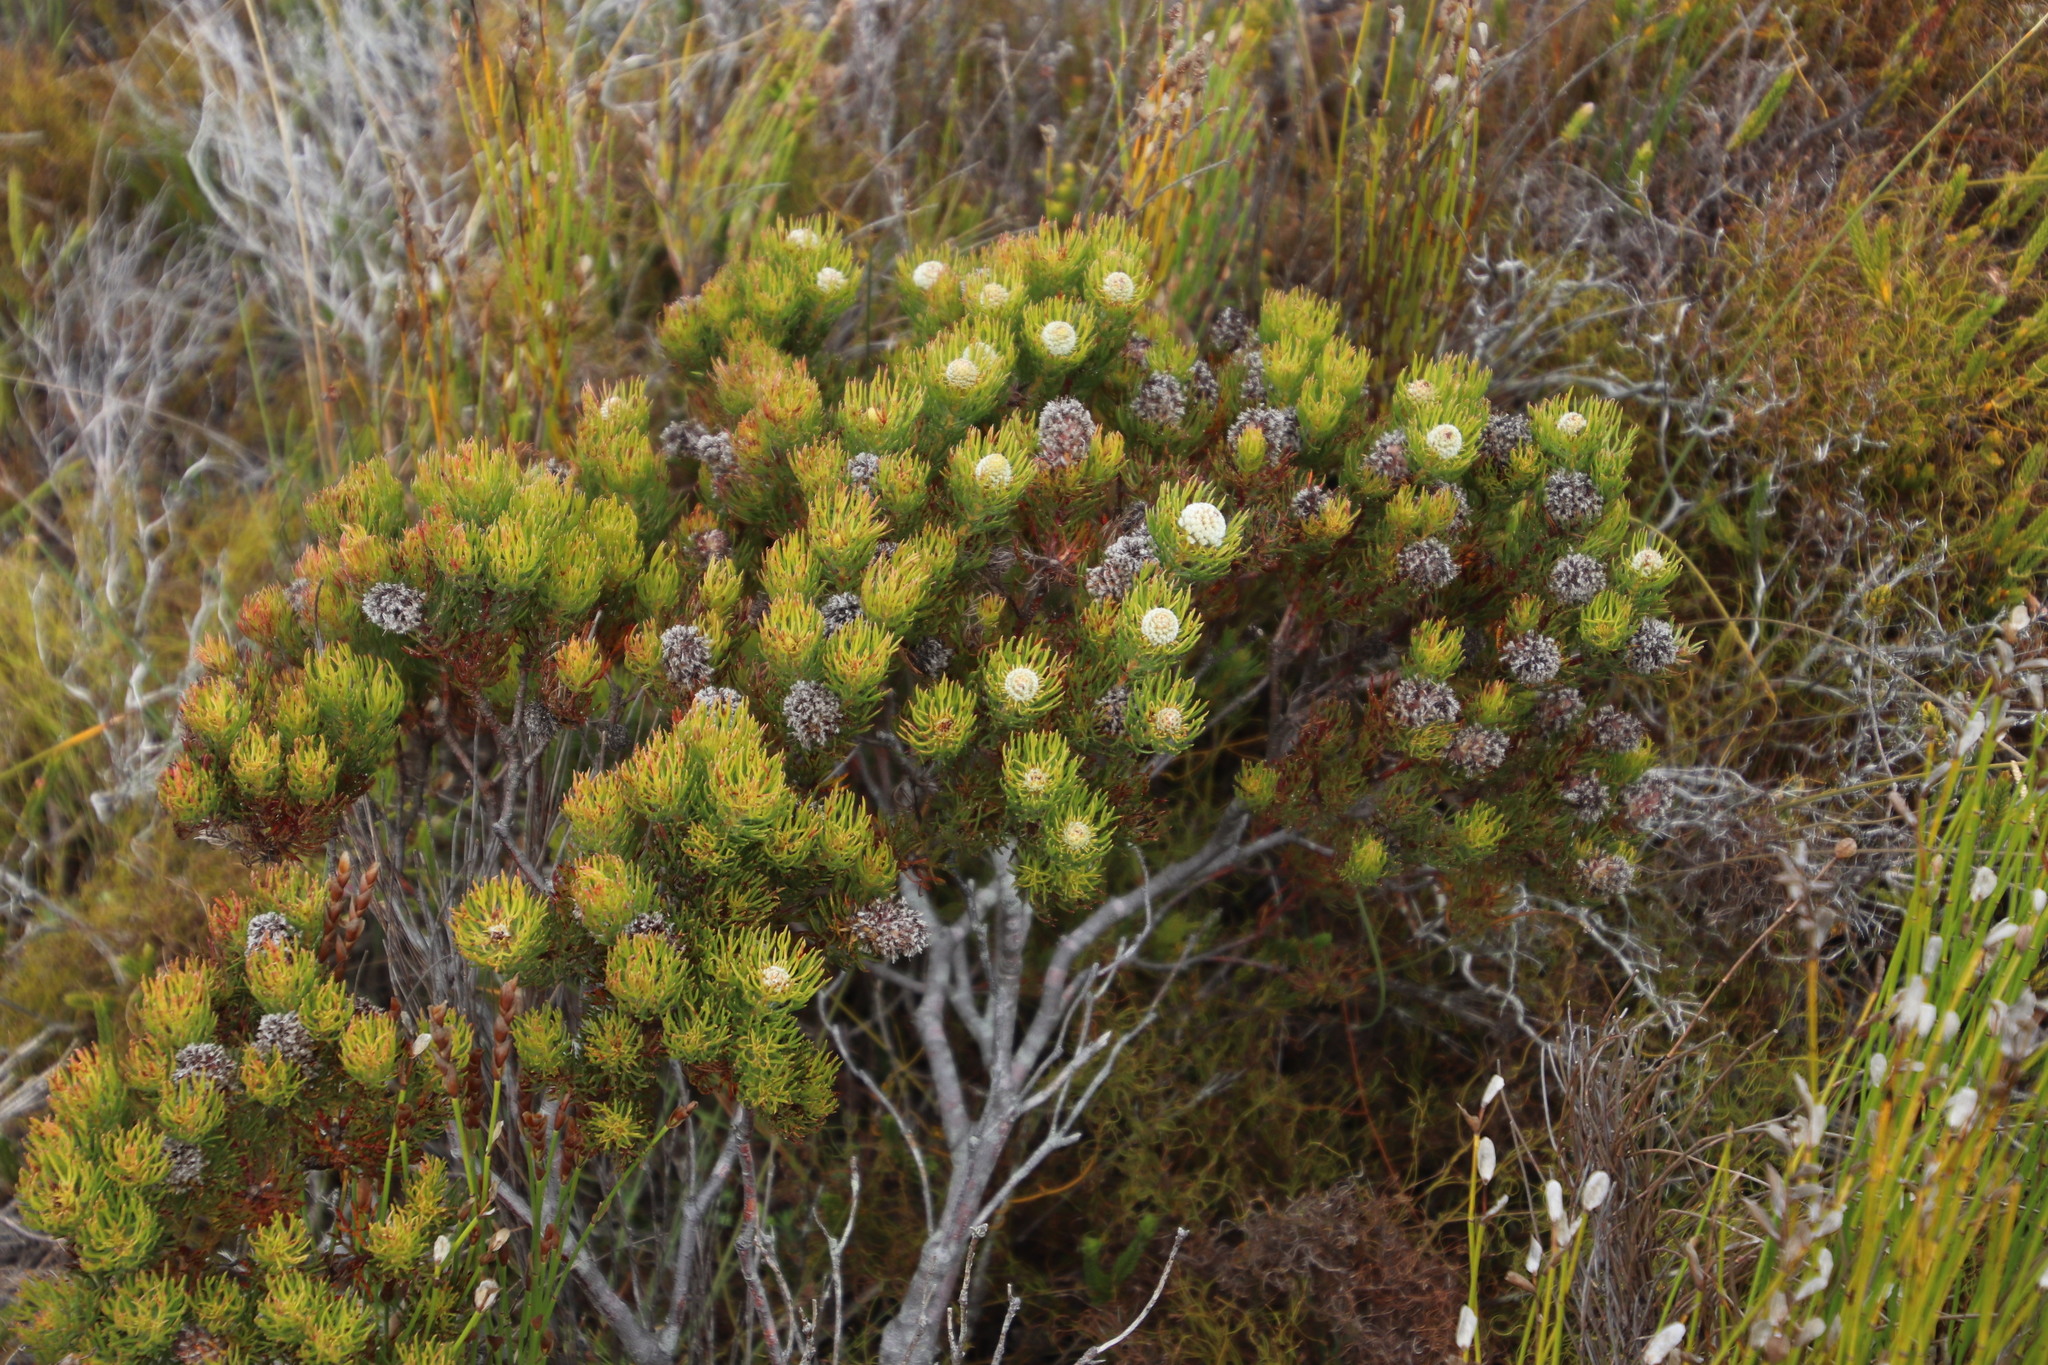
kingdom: Plantae
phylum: Tracheophyta
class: Magnoliopsida
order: Proteales
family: Proteaceae
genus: Serruria
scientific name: Serruria villosa
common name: Golden spiderhead
